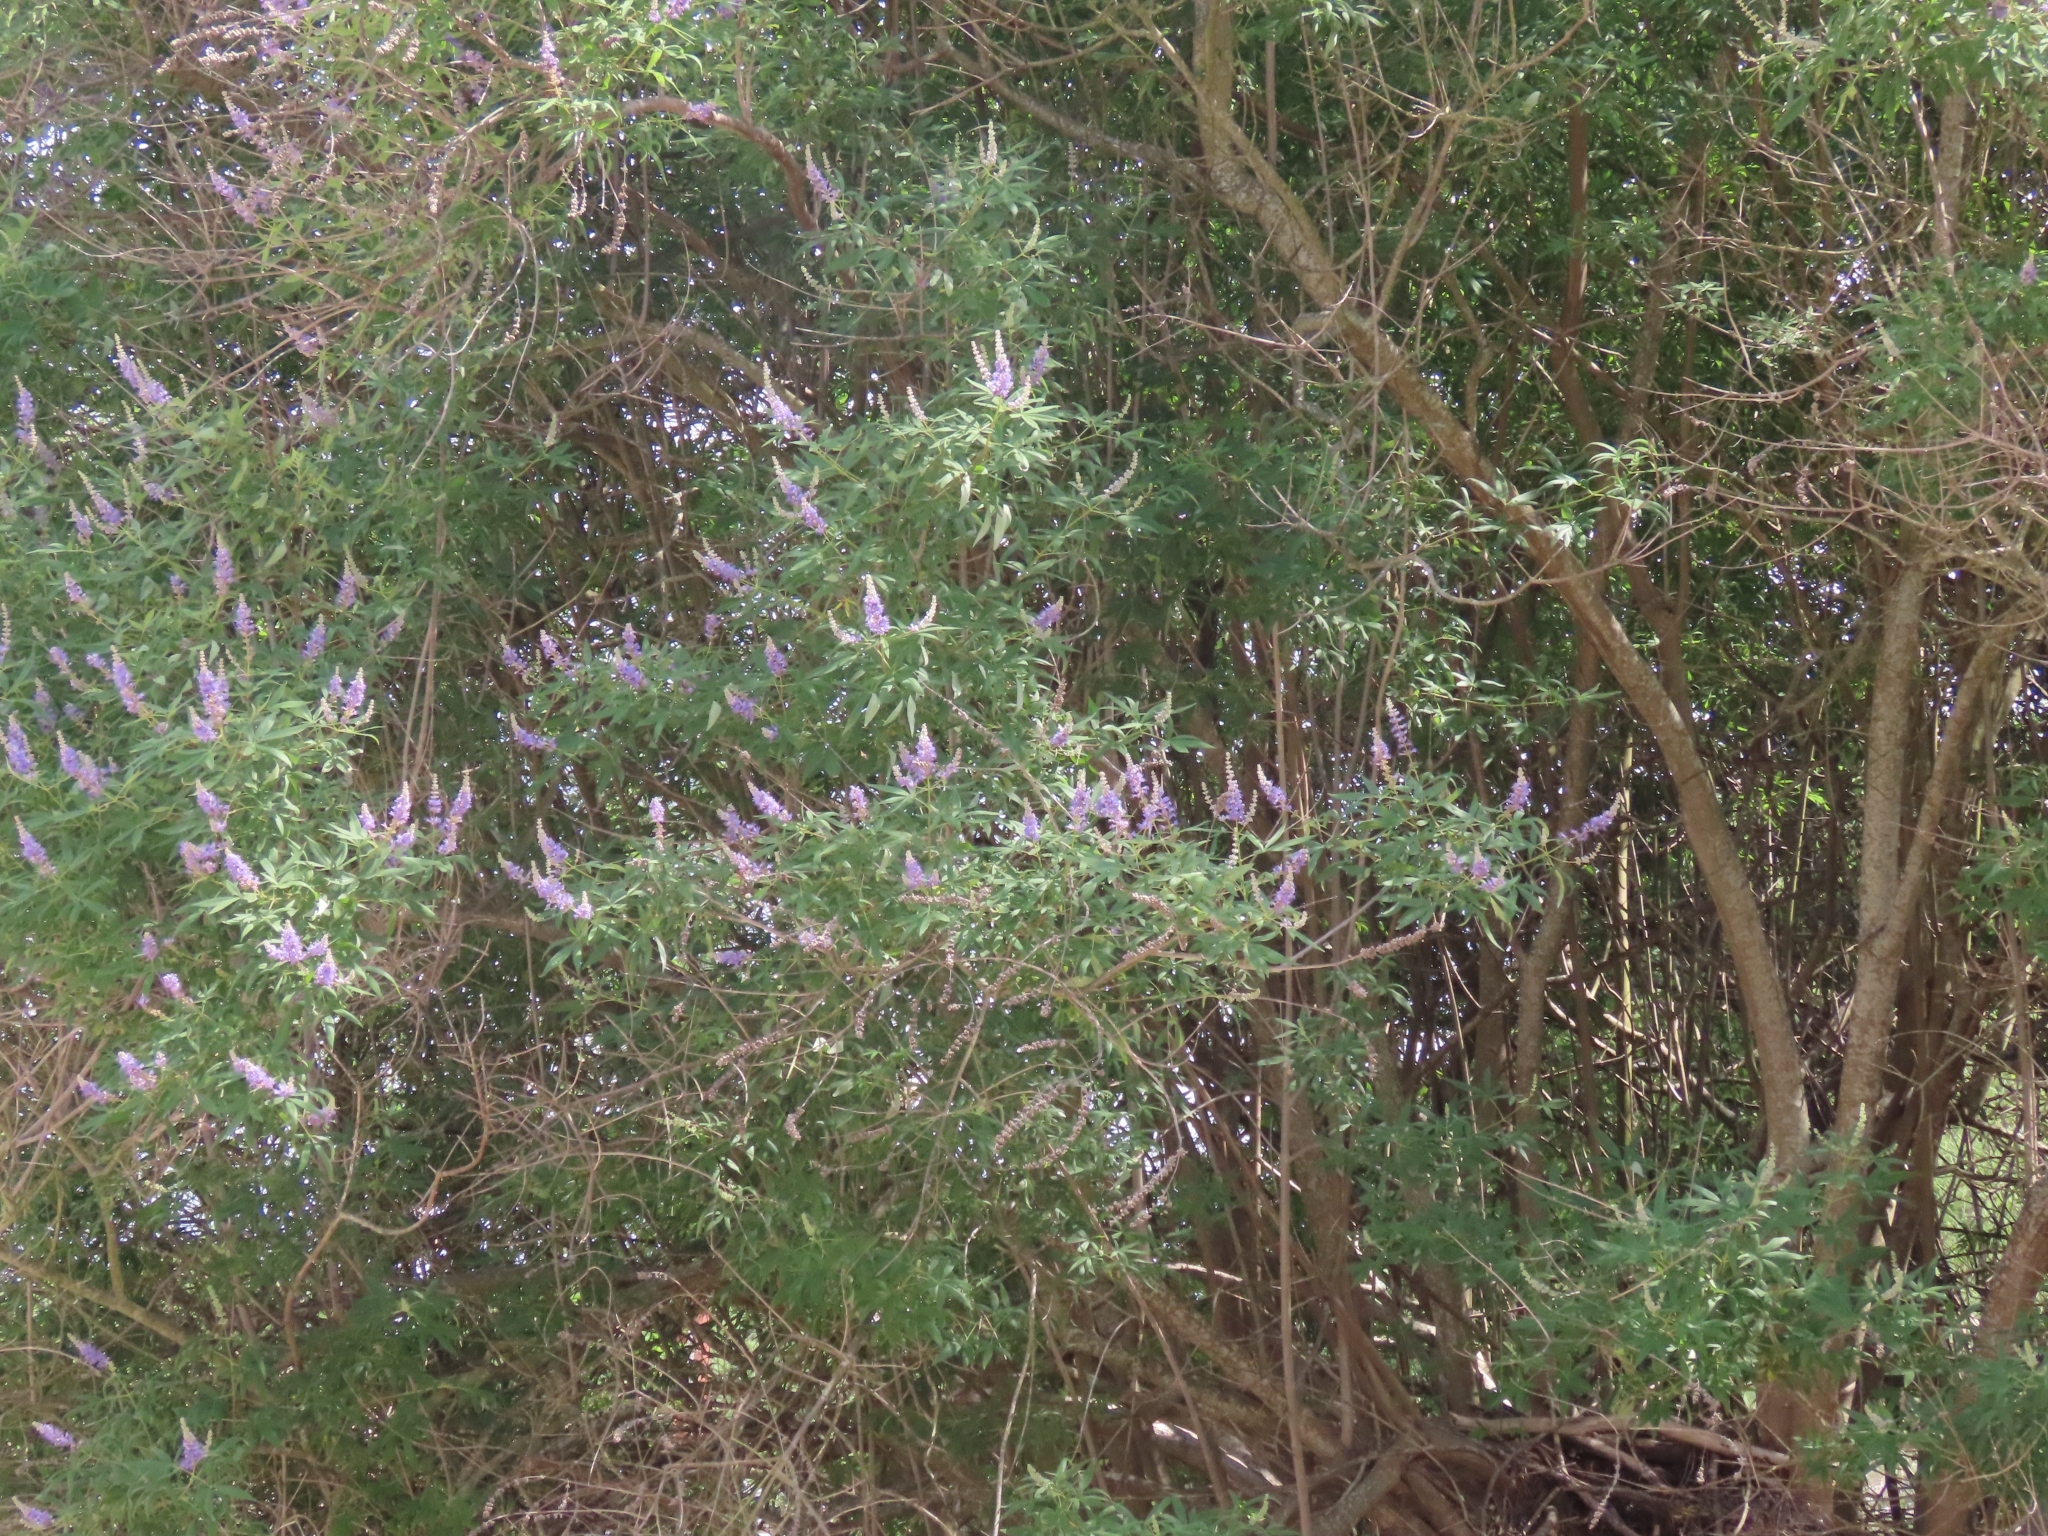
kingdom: Plantae
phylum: Tracheophyta
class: Magnoliopsida
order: Lamiales
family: Lamiaceae
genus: Vitex
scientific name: Vitex agnus-castus
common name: Chasteberry
